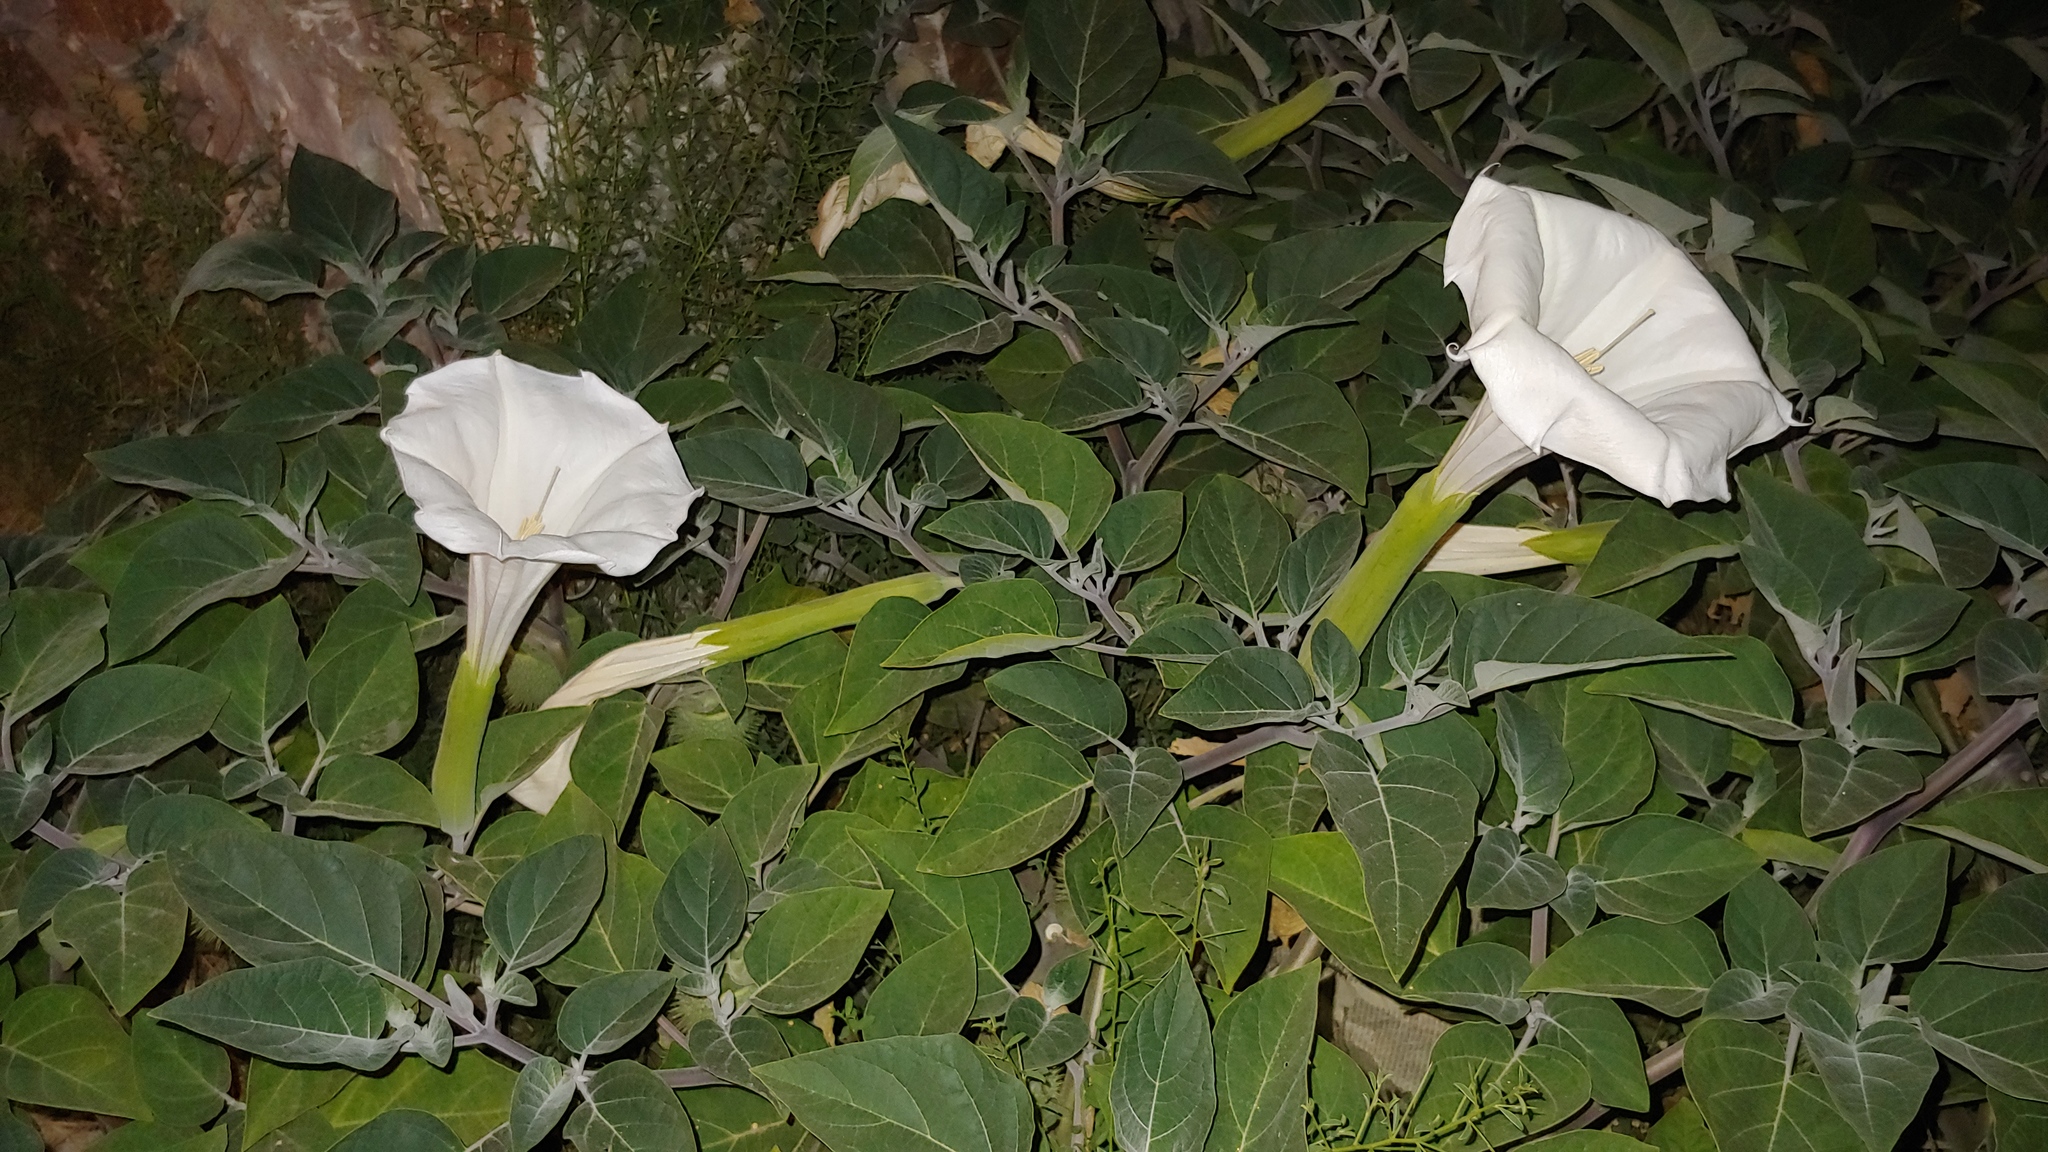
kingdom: Plantae
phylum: Tracheophyta
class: Magnoliopsida
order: Solanales
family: Solanaceae
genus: Datura
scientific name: Datura wrightii
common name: Sacred thorn-apple
